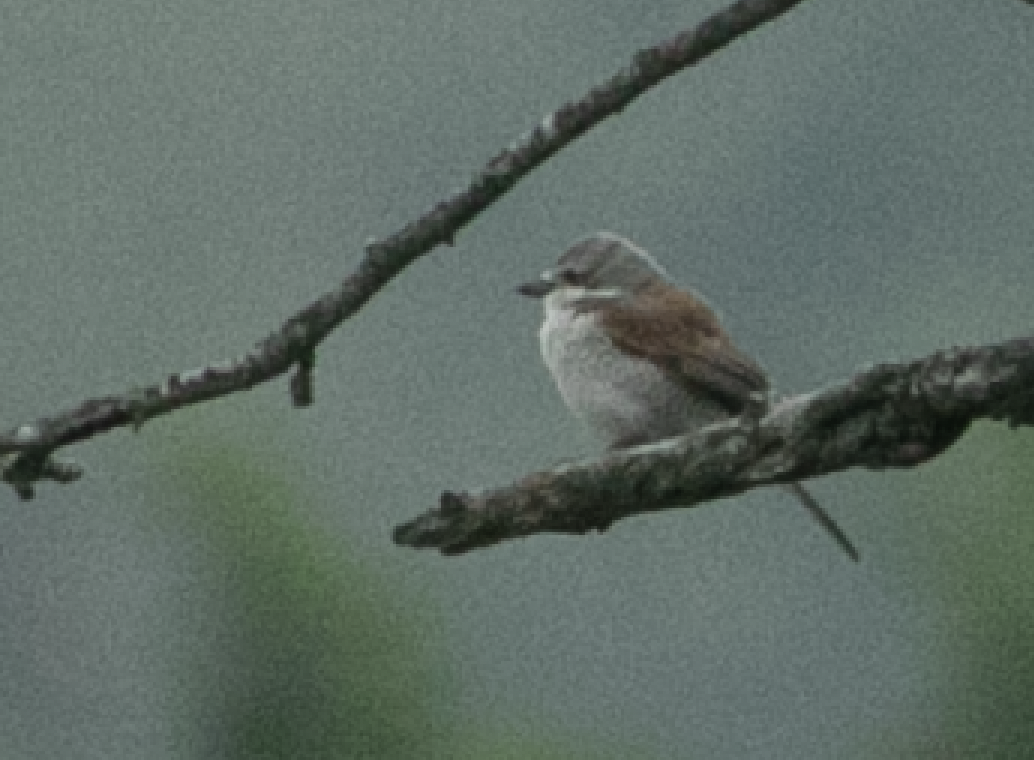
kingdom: Animalia
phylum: Chordata
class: Aves
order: Passeriformes
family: Laniidae
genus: Lanius
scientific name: Lanius collurio
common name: Red-backed shrike
